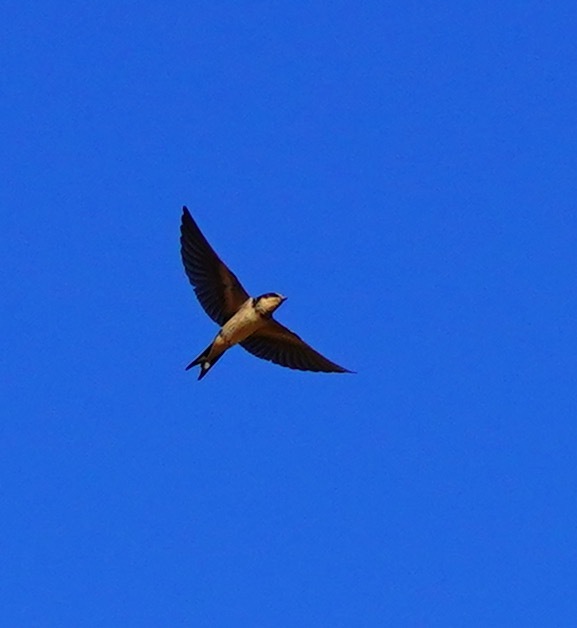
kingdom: Animalia
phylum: Chordata
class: Aves
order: Passeriformes
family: Hirundinidae
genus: Hirundo
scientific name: Hirundo rustica
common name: Barn swallow
